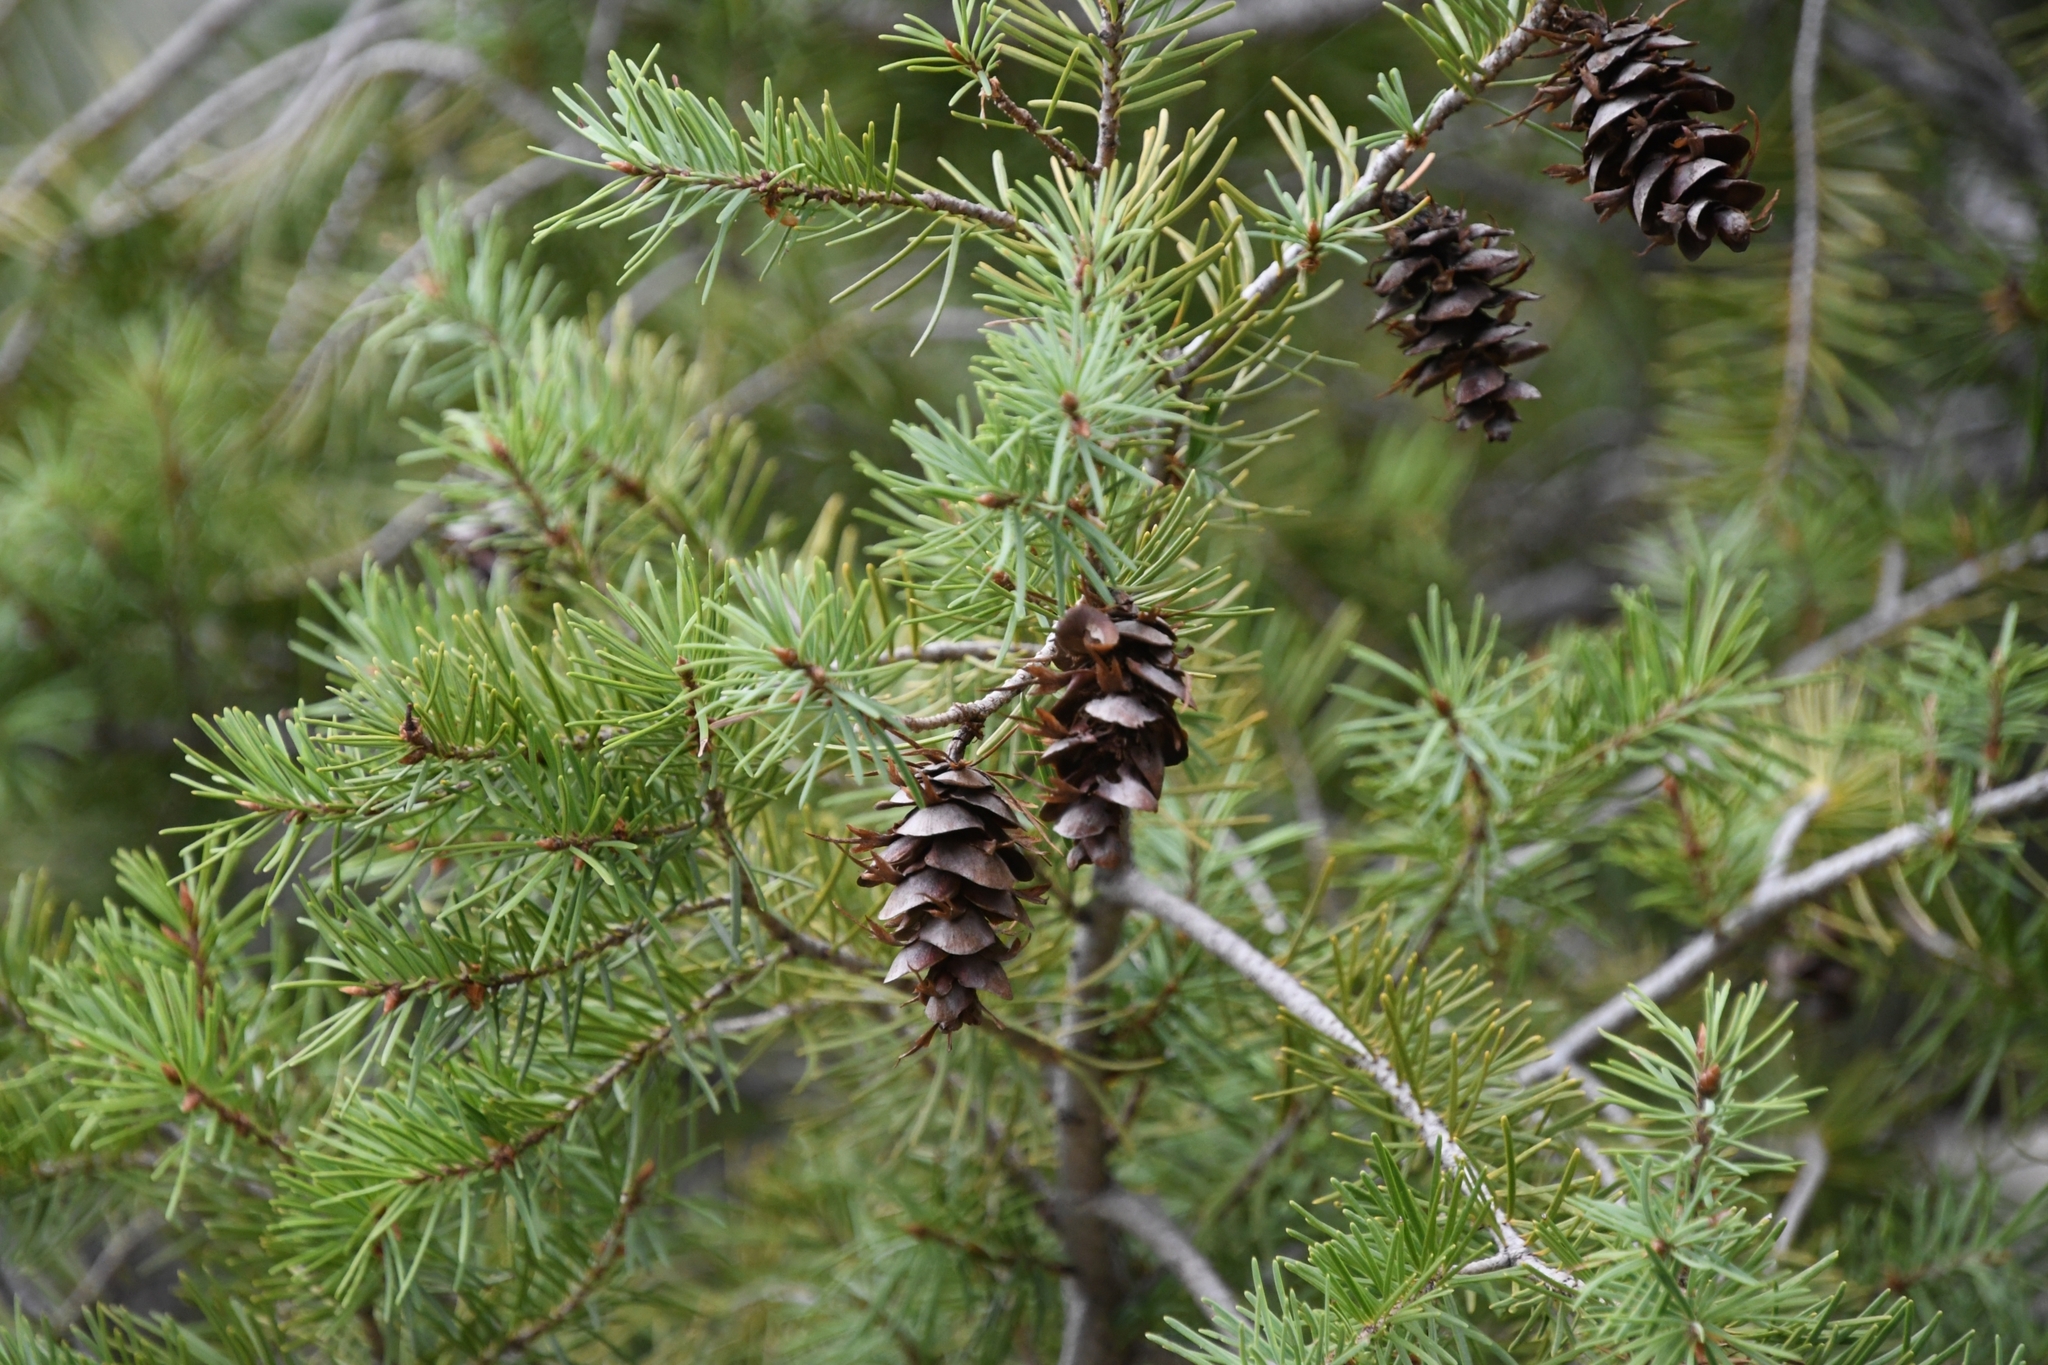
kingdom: Plantae
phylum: Tracheophyta
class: Pinopsida
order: Pinales
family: Pinaceae
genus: Pseudotsuga
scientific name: Pseudotsuga menziesii
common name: Douglas fir
